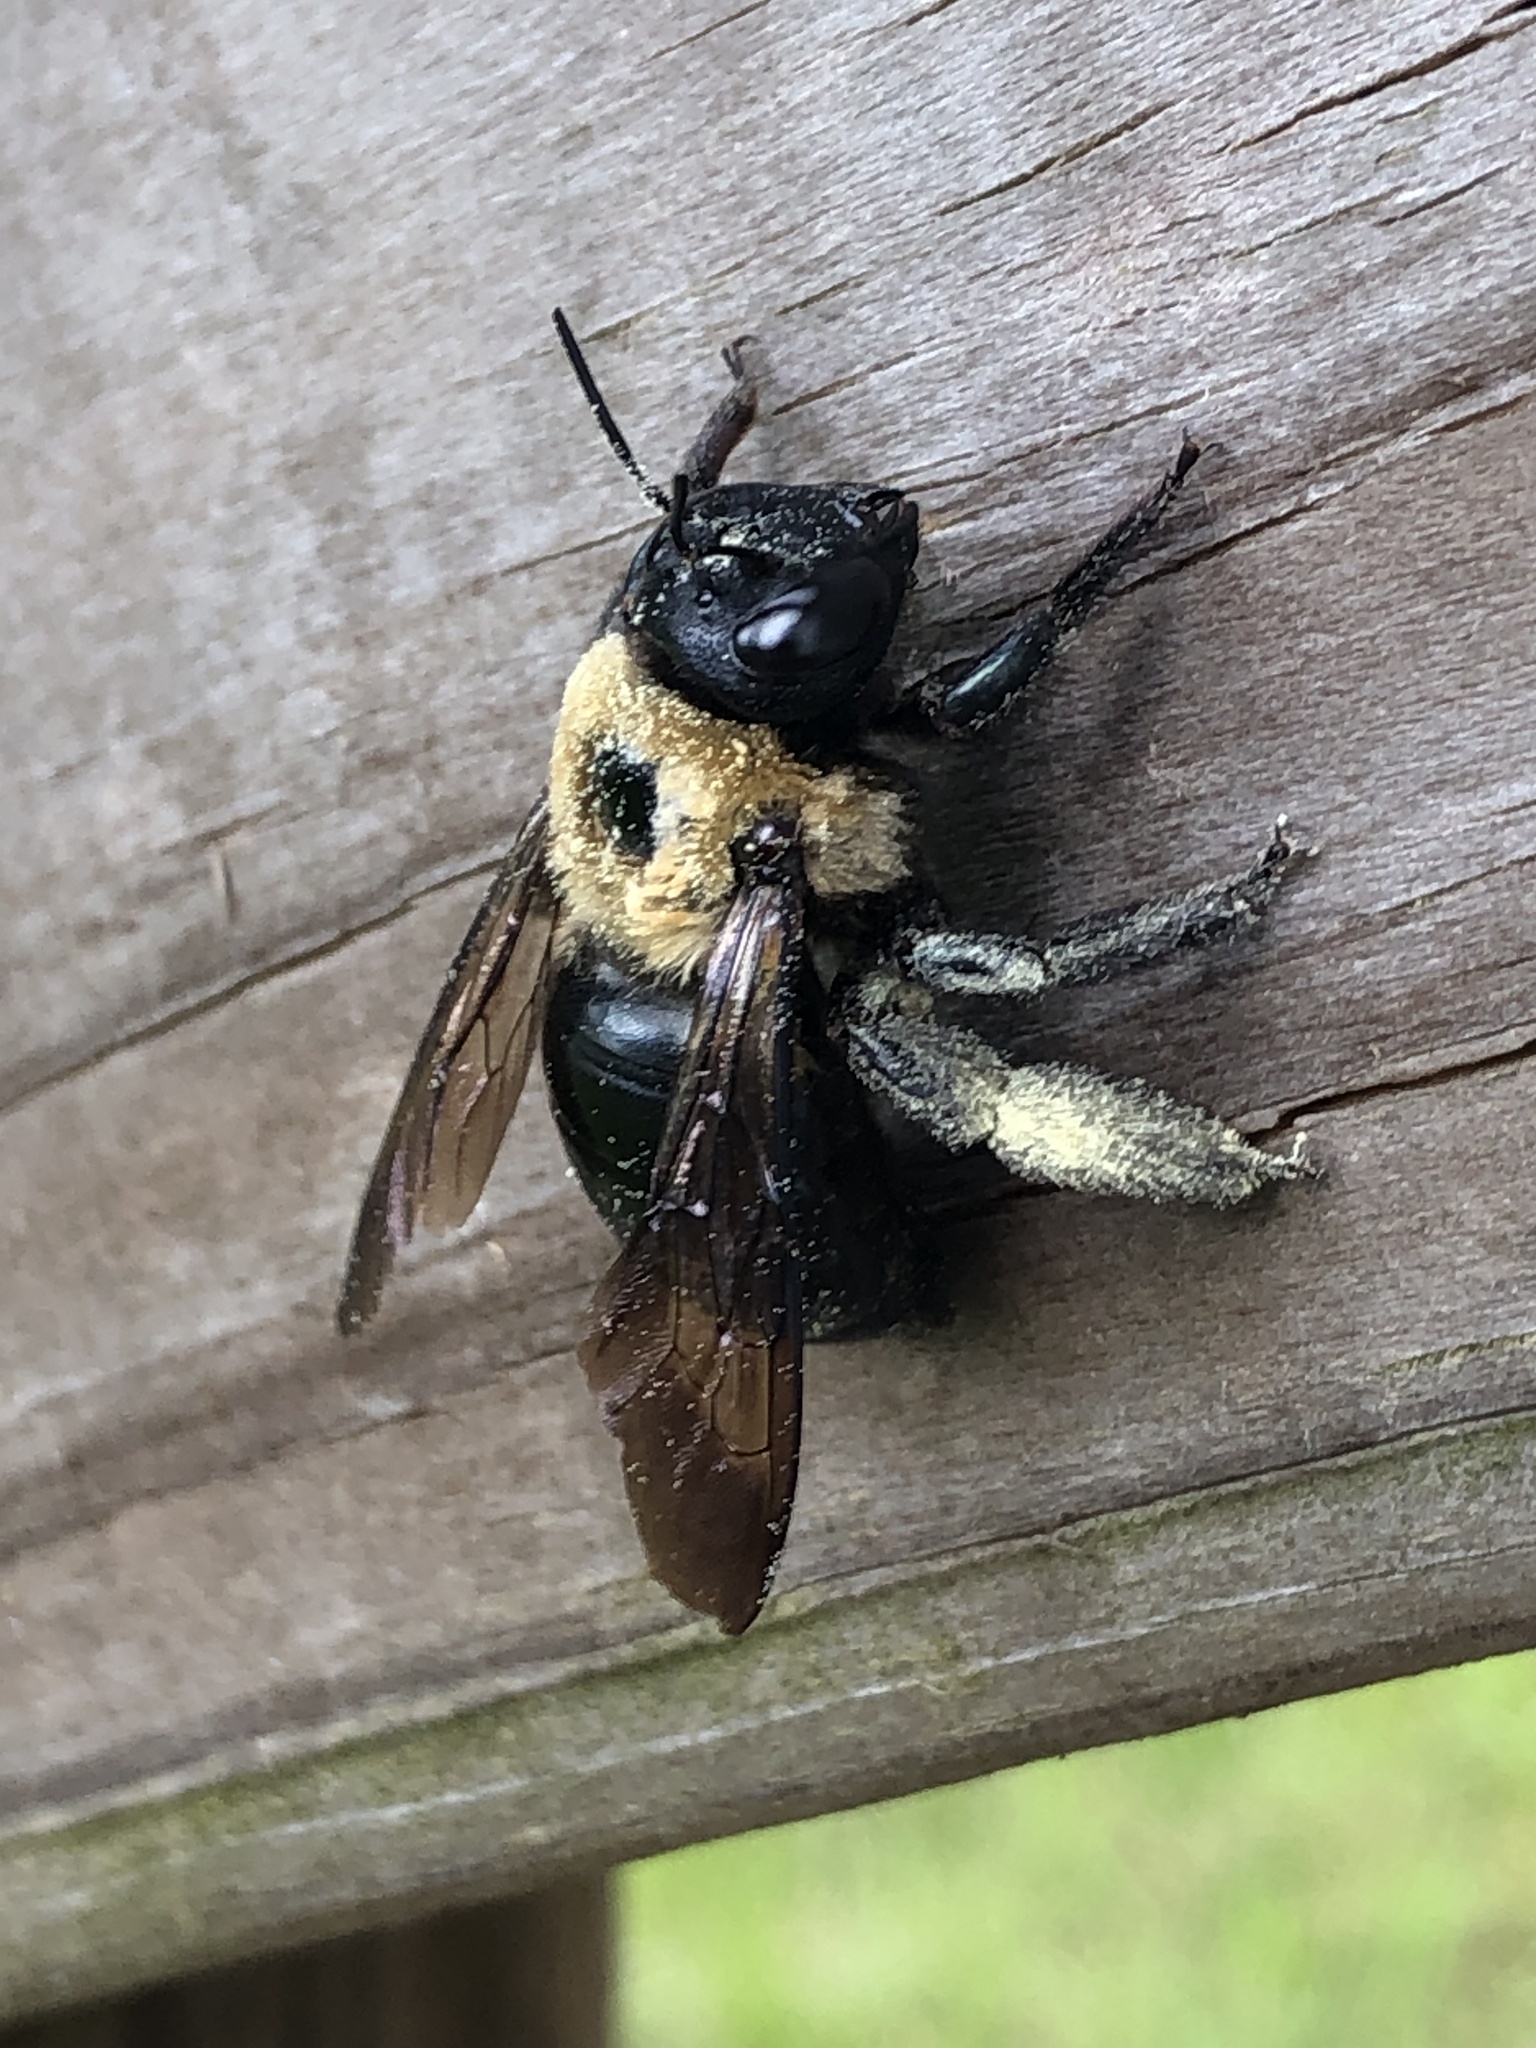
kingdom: Animalia
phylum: Arthropoda
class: Insecta
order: Hymenoptera
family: Apidae
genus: Xylocopa
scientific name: Xylocopa virginica
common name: Carpenter bee
